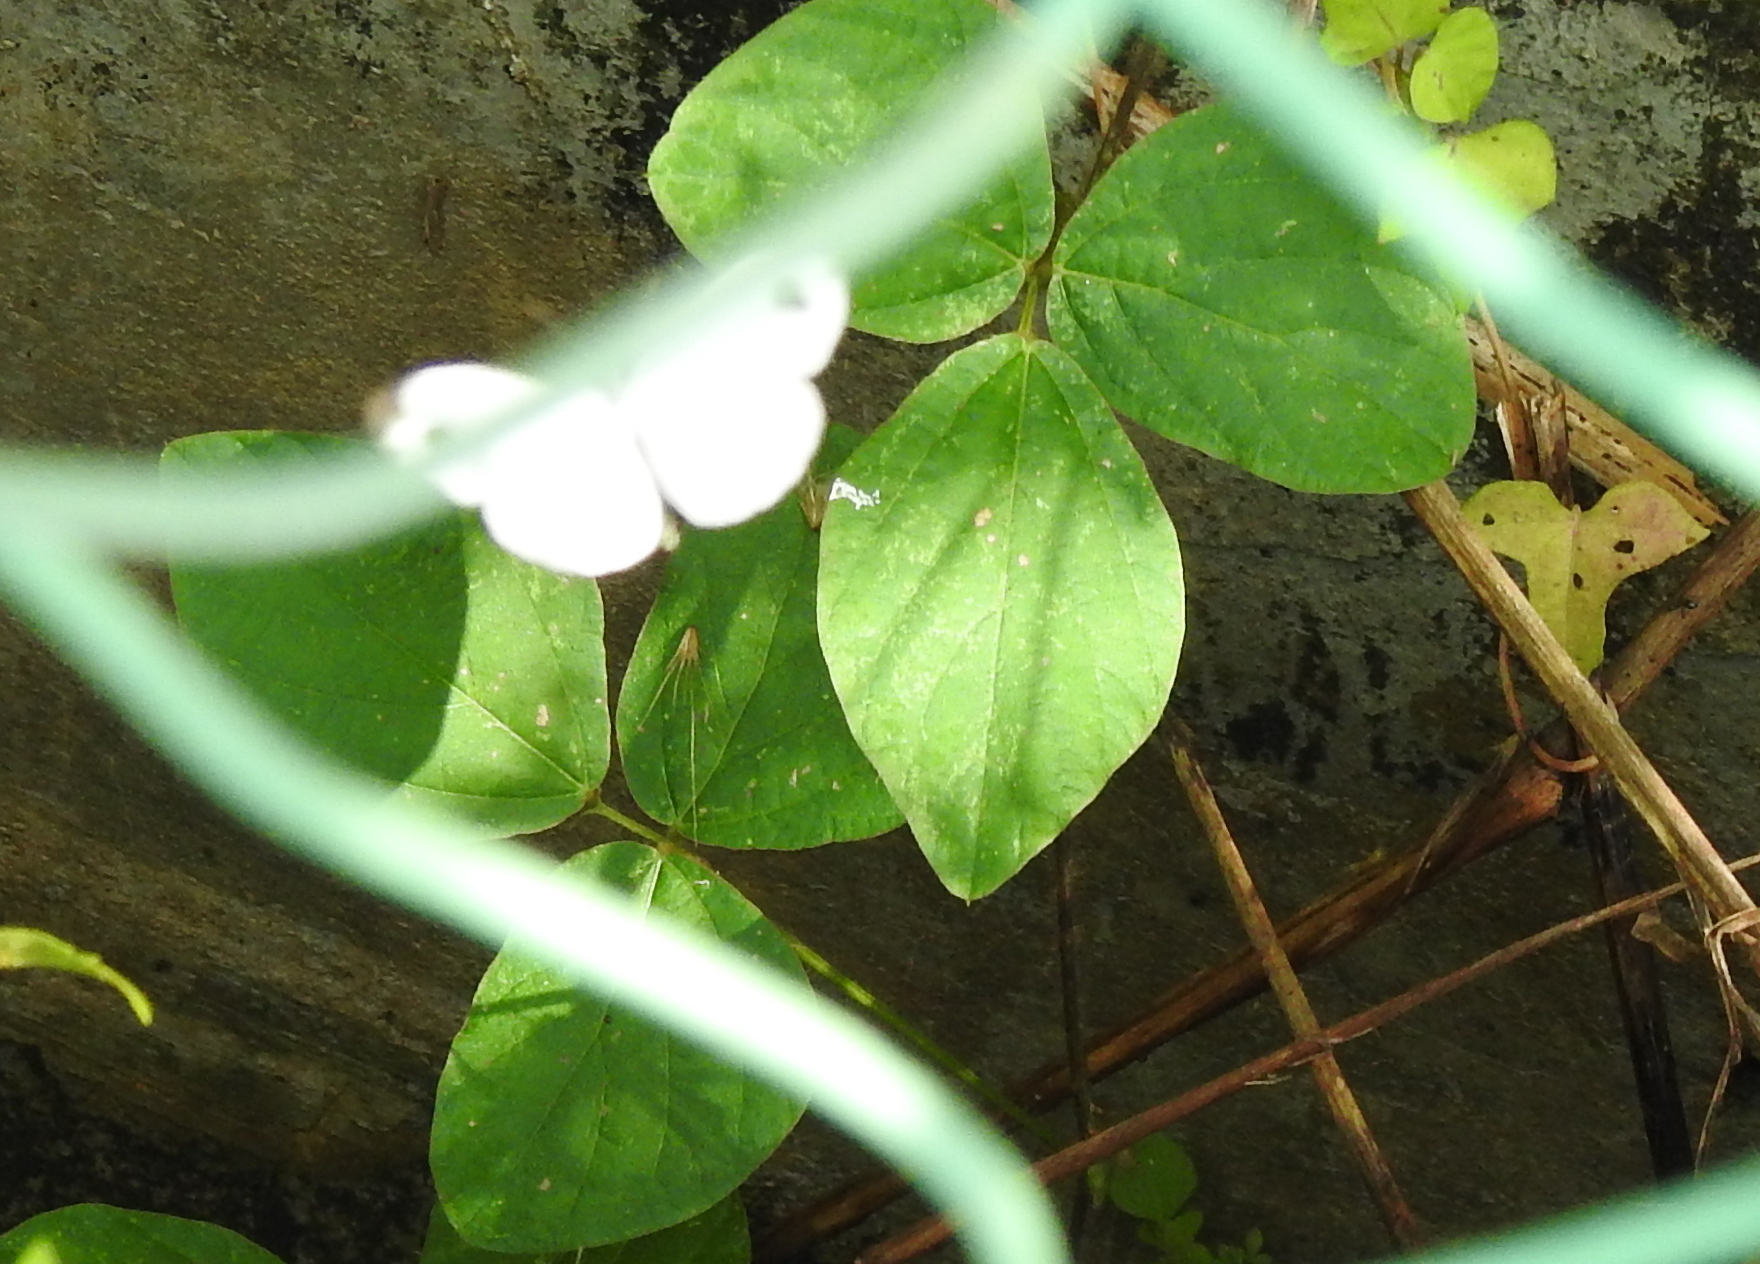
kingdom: Animalia
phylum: Arthropoda
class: Insecta
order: Lepidoptera
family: Pieridae
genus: Leptosia
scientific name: Leptosia nina
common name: Psyche
